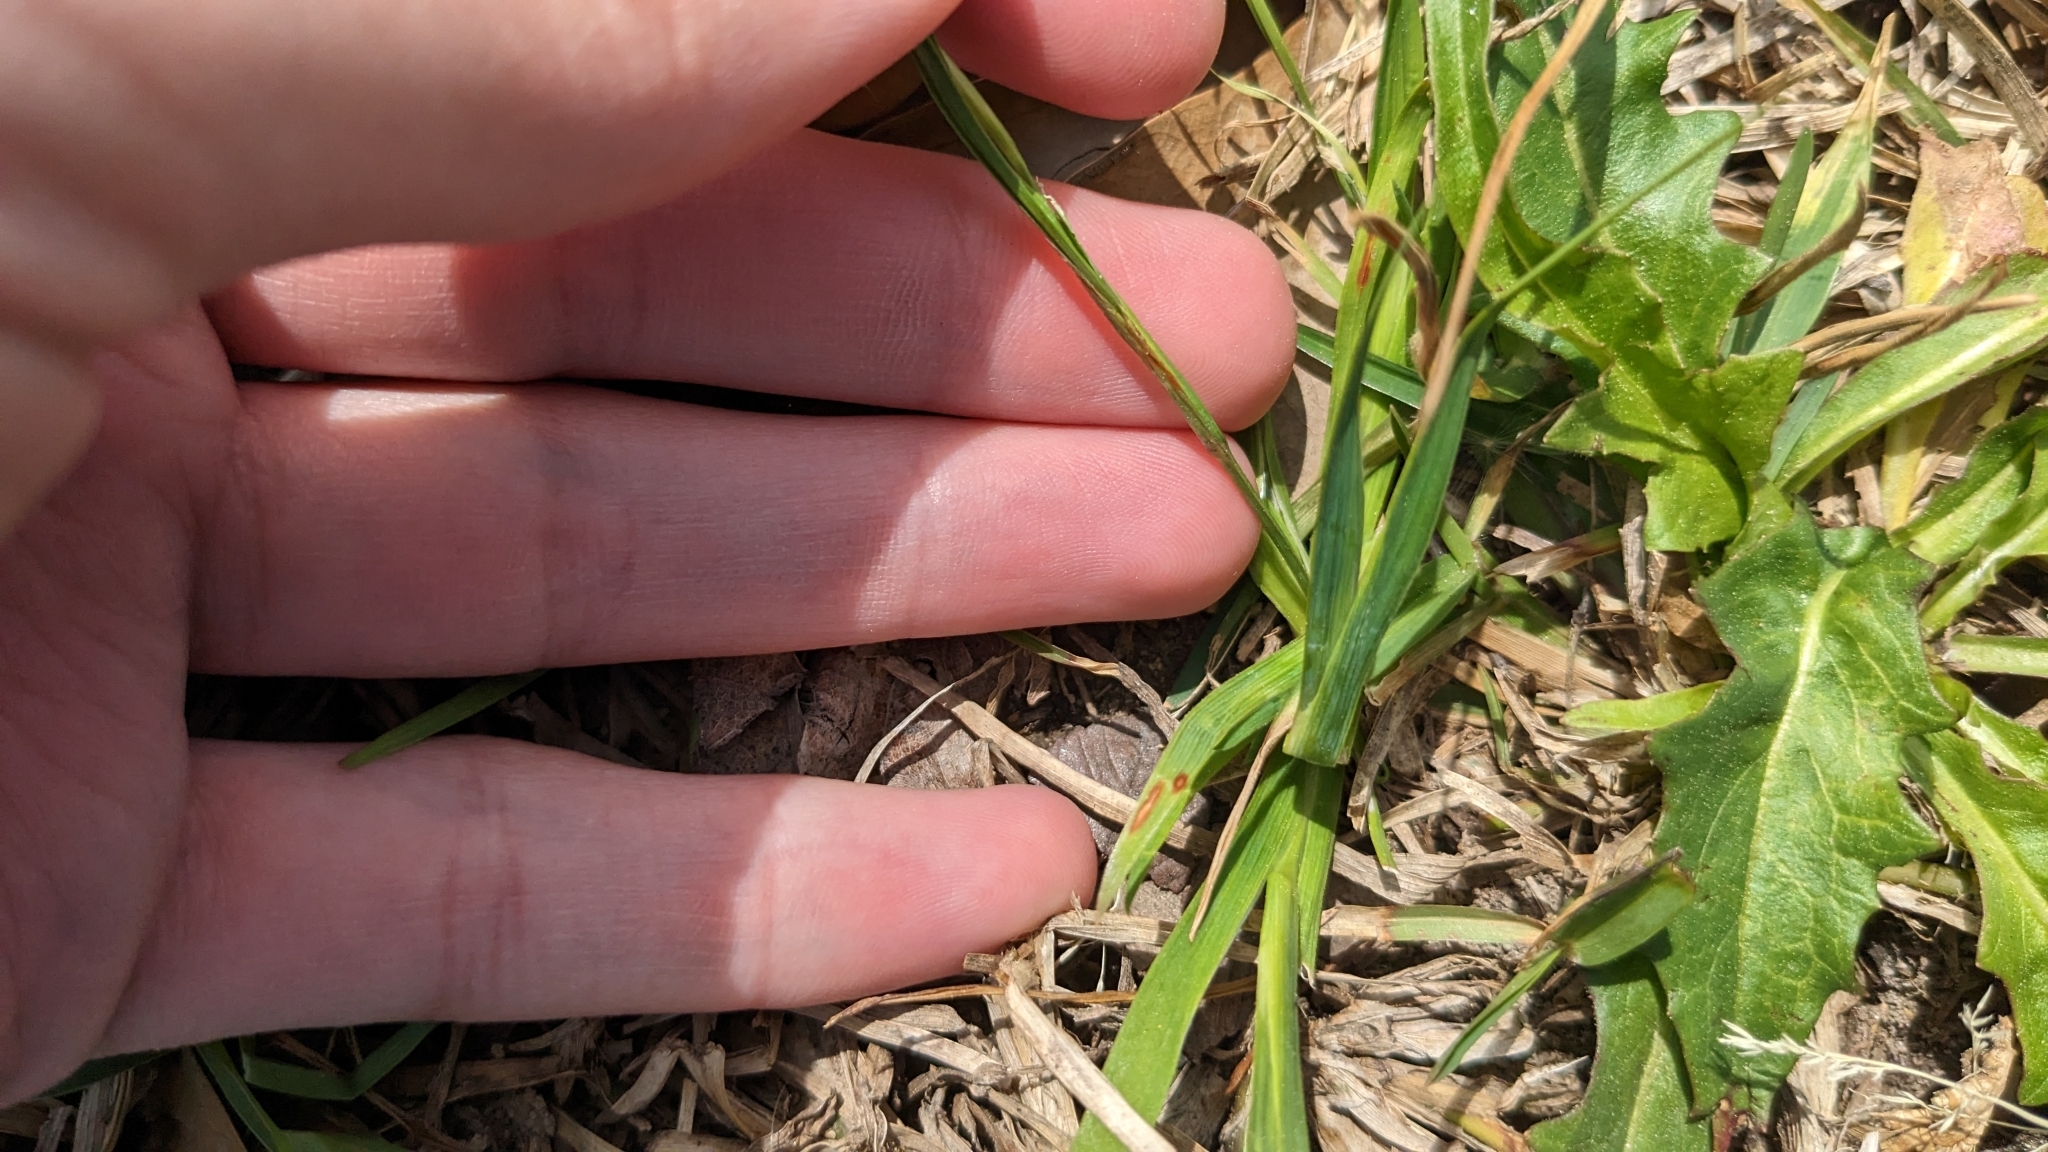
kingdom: Plantae
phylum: Tracheophyta
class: Liliopsida
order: Asparagales
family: Iridaceae
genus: Sisyrinchium
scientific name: Sisyrinchium micranthum
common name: Bermuda pigroot
